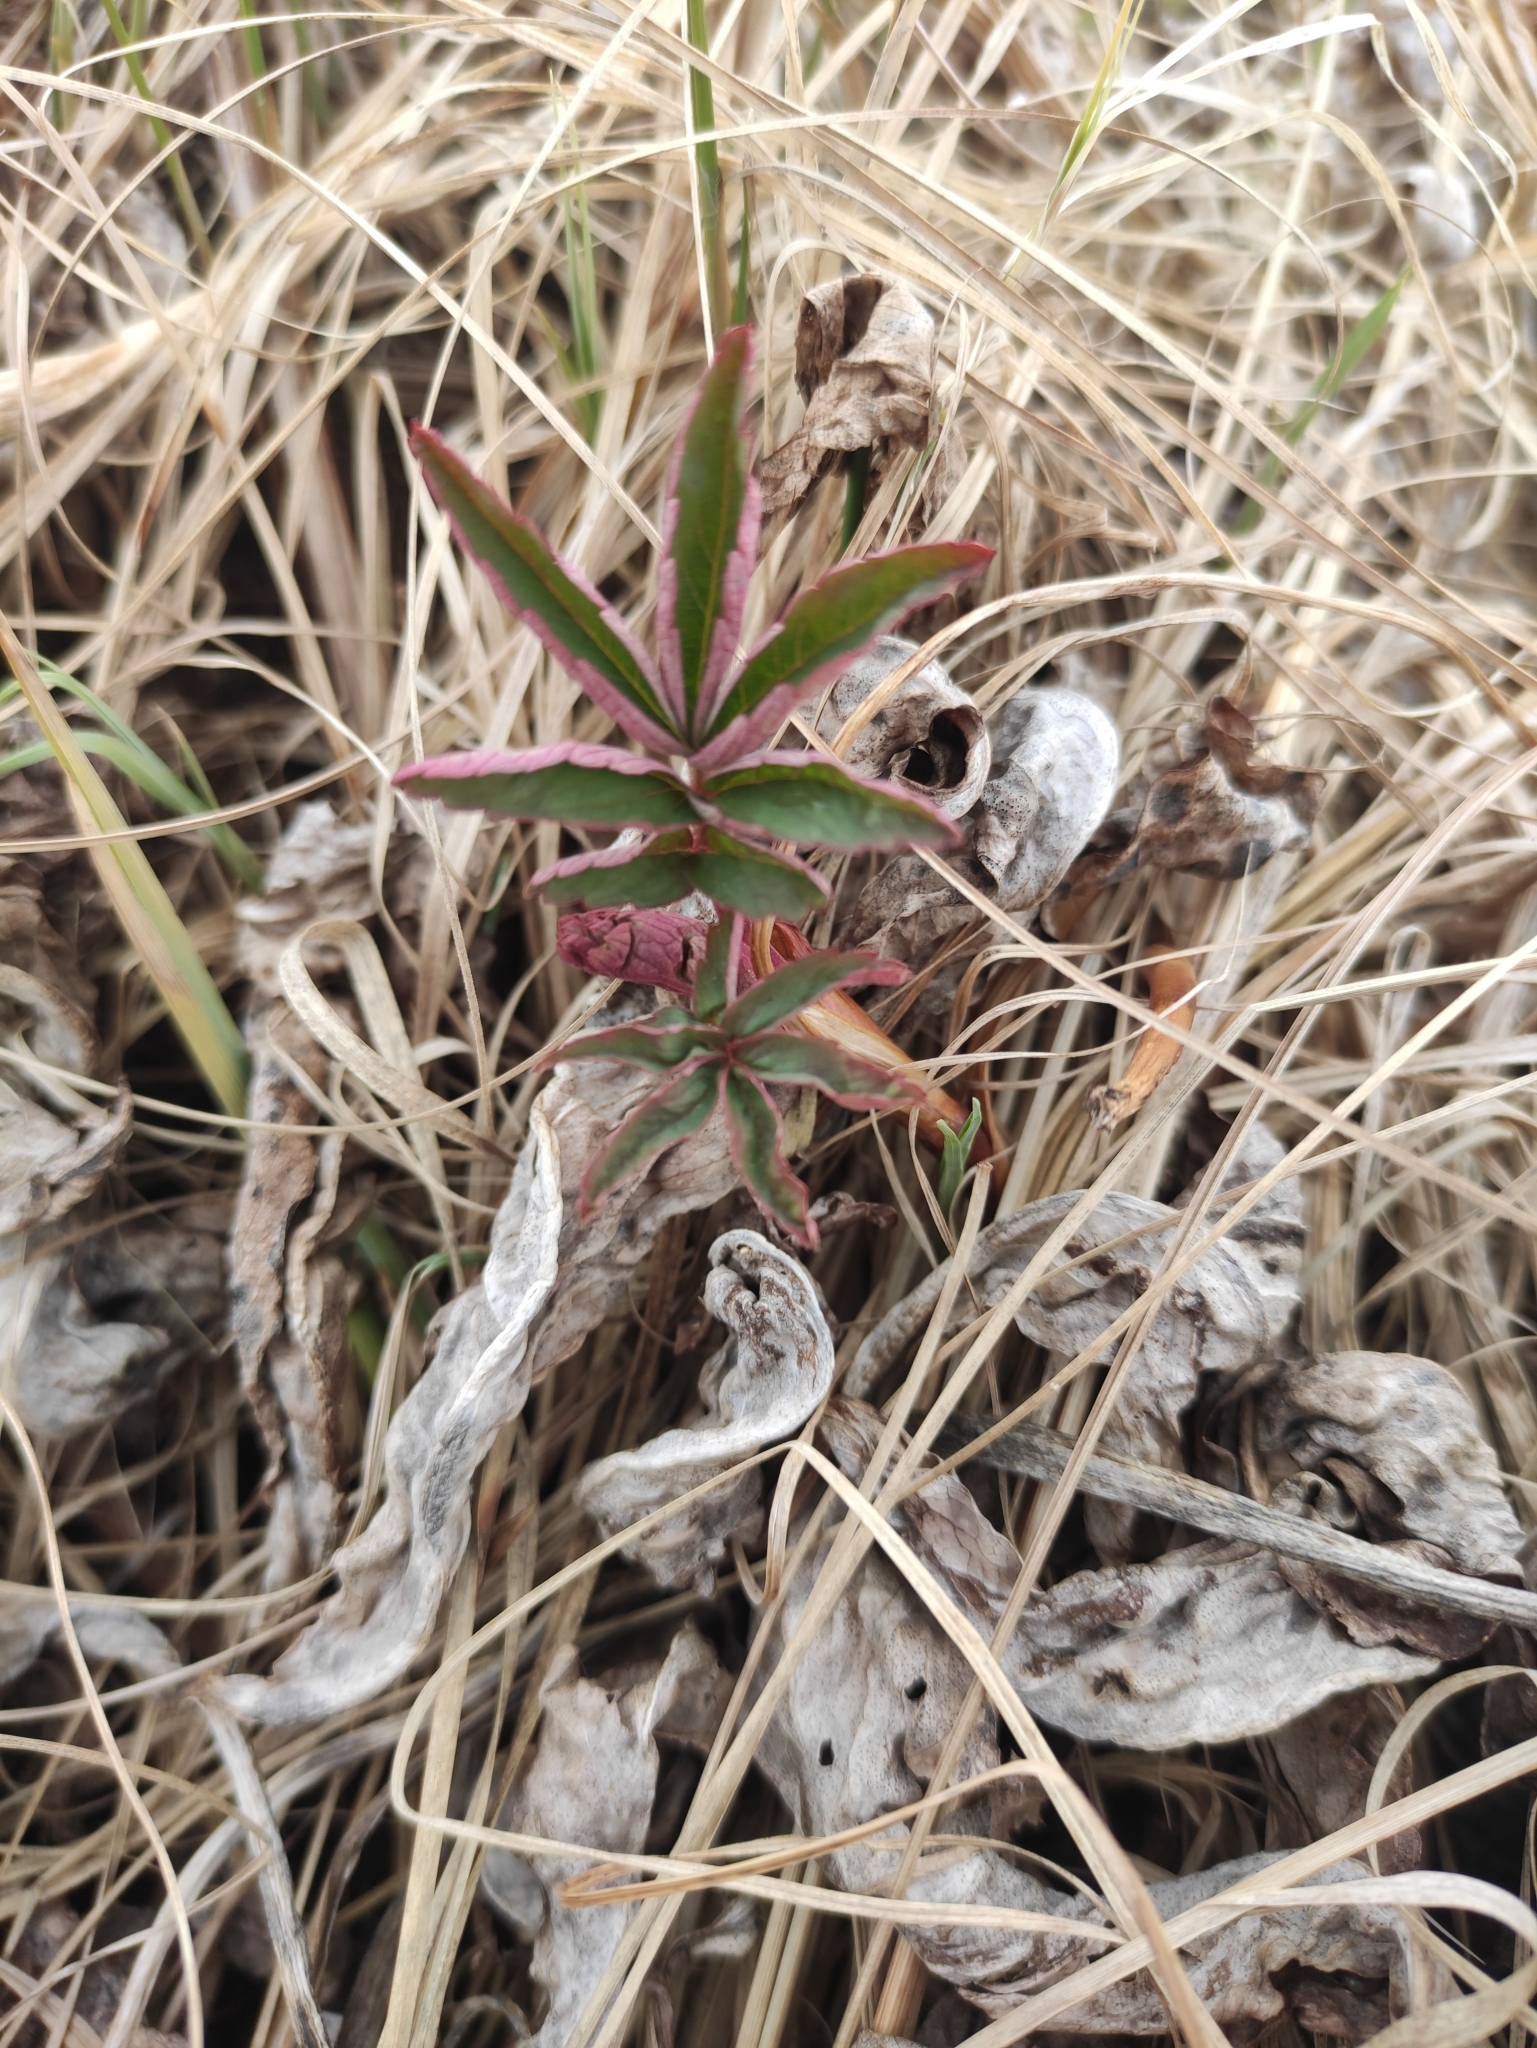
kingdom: Plantae
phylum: Tracheophyta
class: Magnoliopsida
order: Rosales
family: Rosaceae
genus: Comarum
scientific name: Comarum palustre
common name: Marsh cinquefoil
